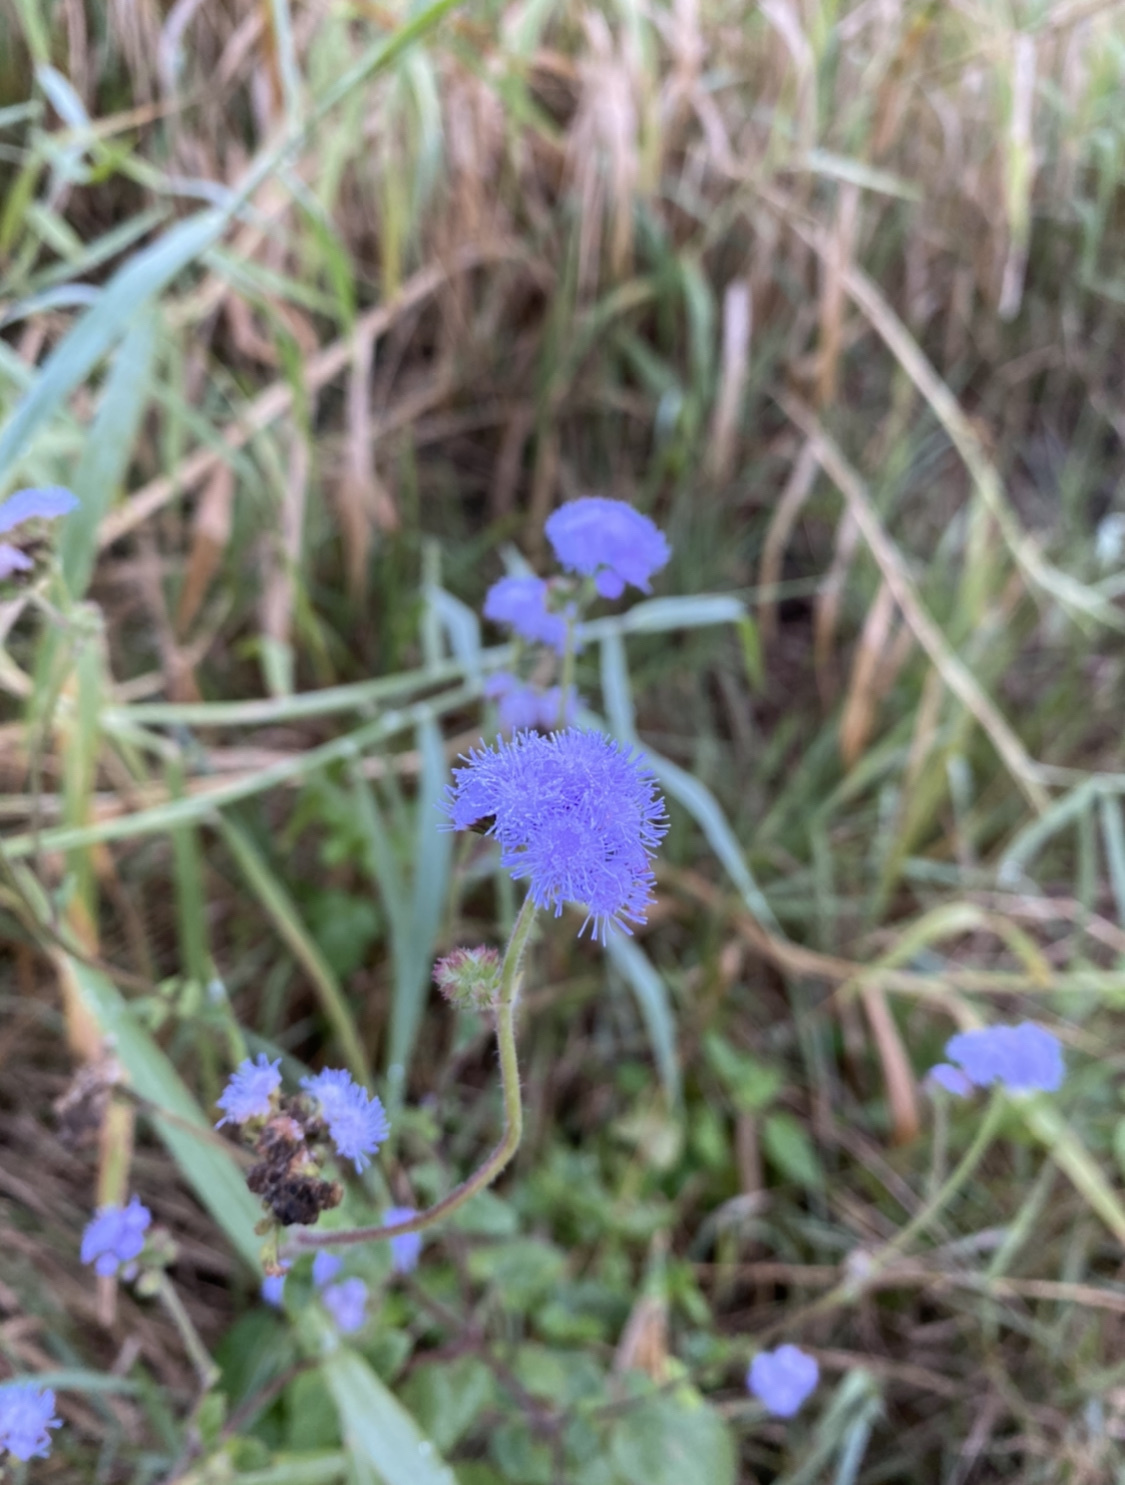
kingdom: Plantae
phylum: Tracheophyta
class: Magnoliopsida
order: Asterales
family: Asteraceae
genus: Ageratum
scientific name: Ageratum houstonianum
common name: Bluemink
